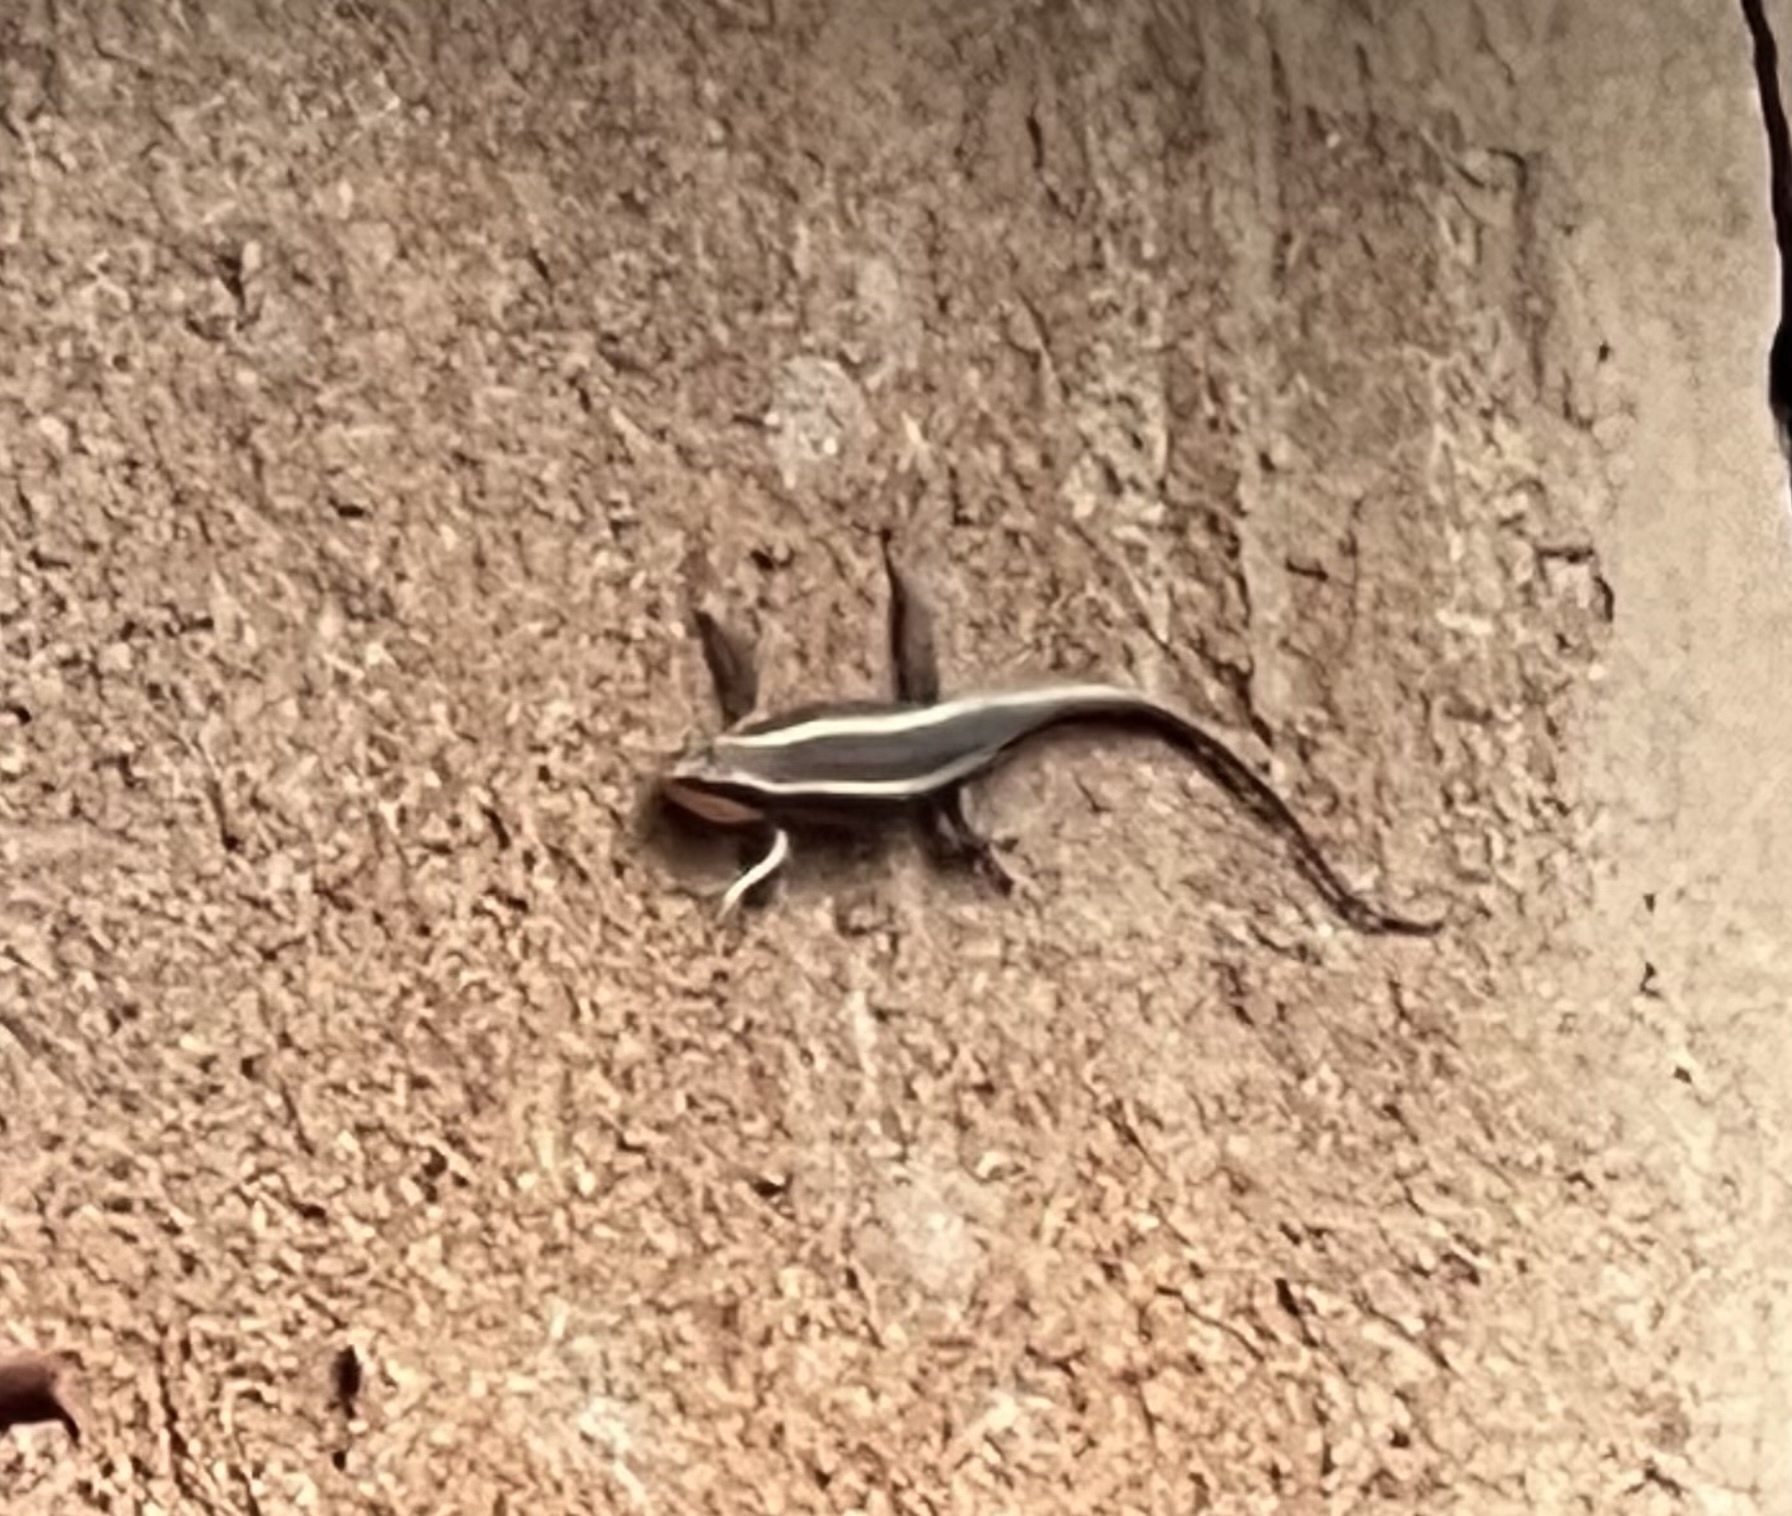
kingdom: Animalia
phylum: Chordata
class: Squamata
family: Scincidae
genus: Trachylepis
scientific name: Trachylepis striata
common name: African striped mabuya
